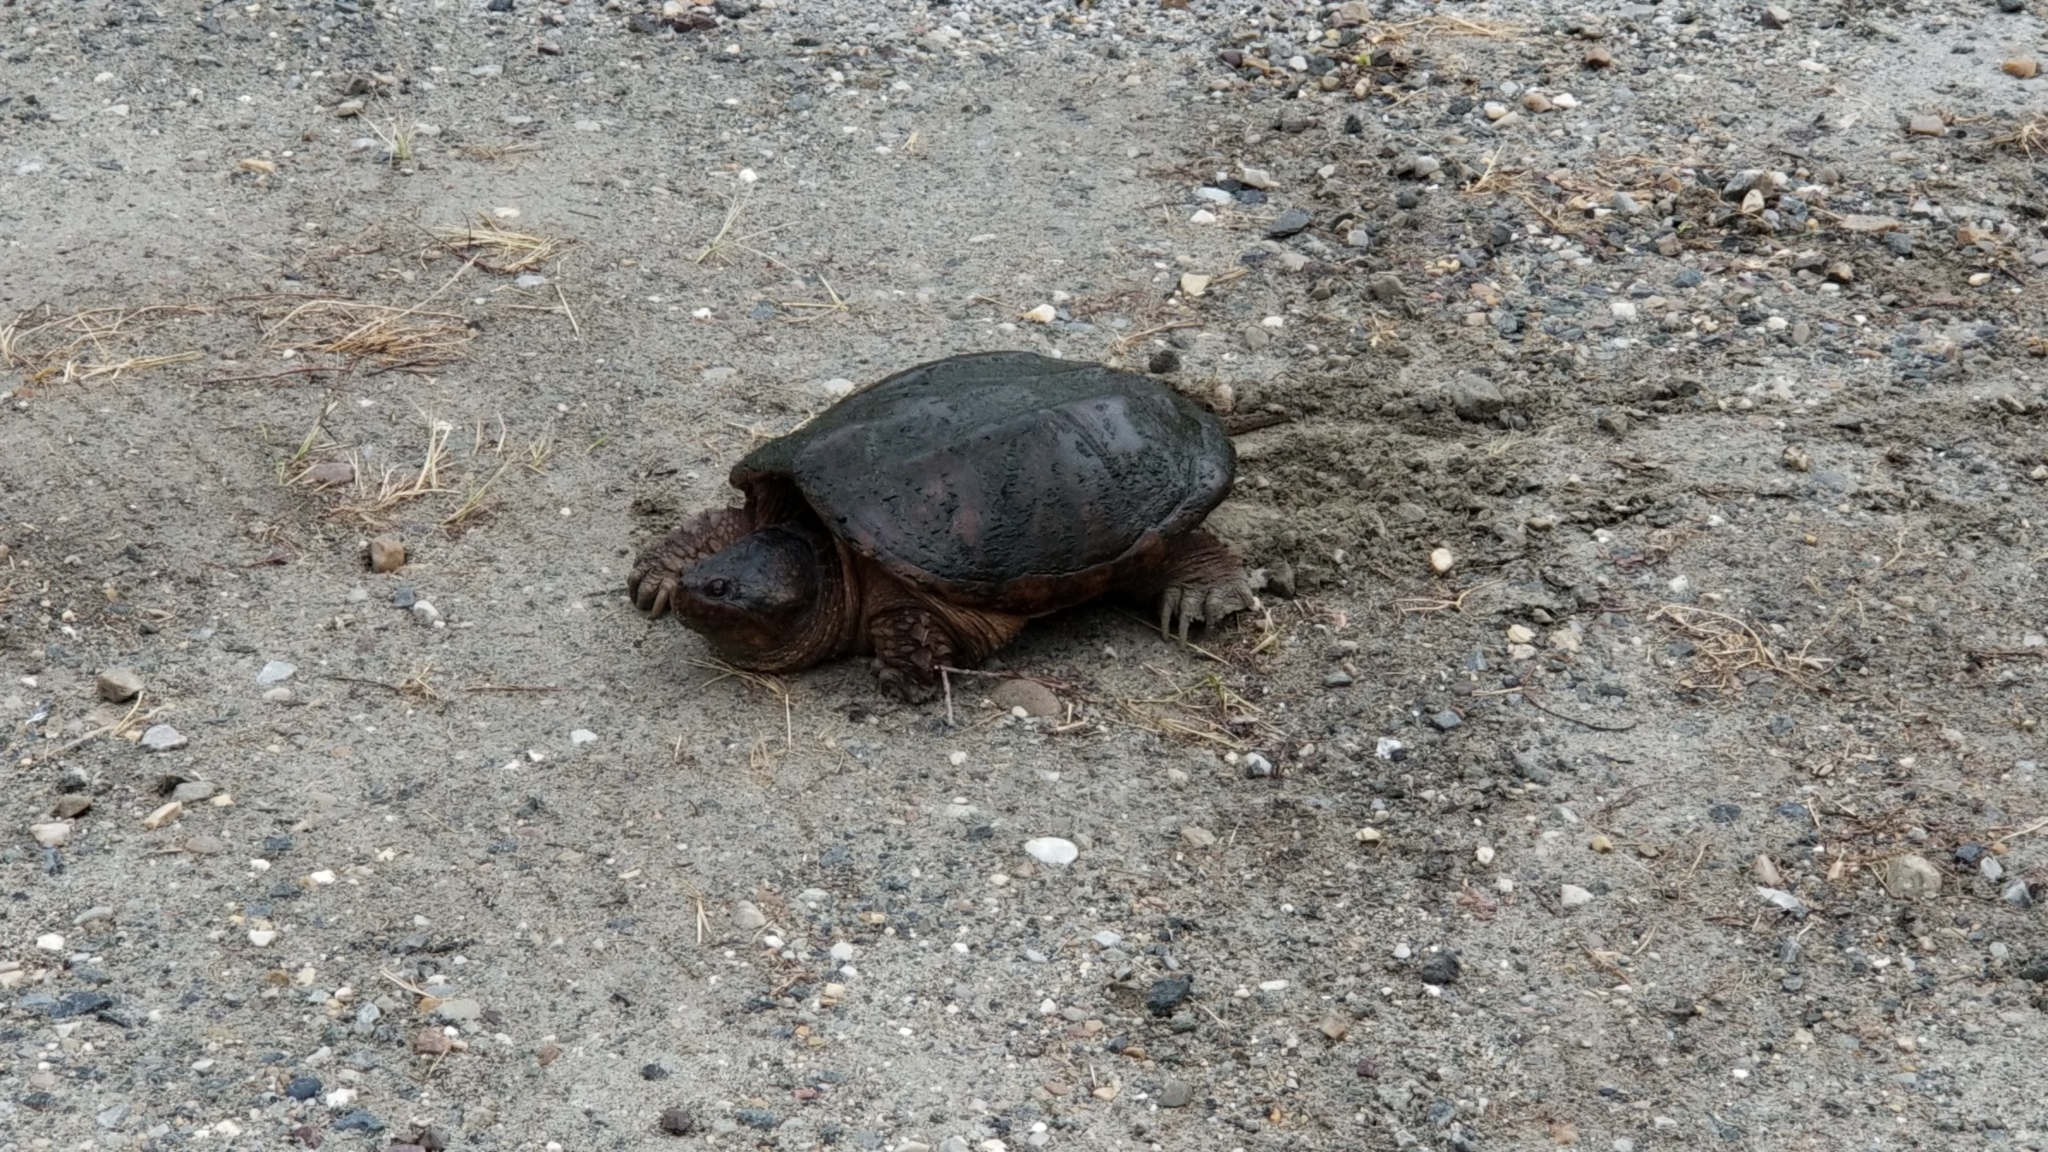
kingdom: Animalia
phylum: Chordata
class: Testudines
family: Chelydridae
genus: Chelydra
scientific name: Chelydra serpentina
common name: Common snapping turtle
